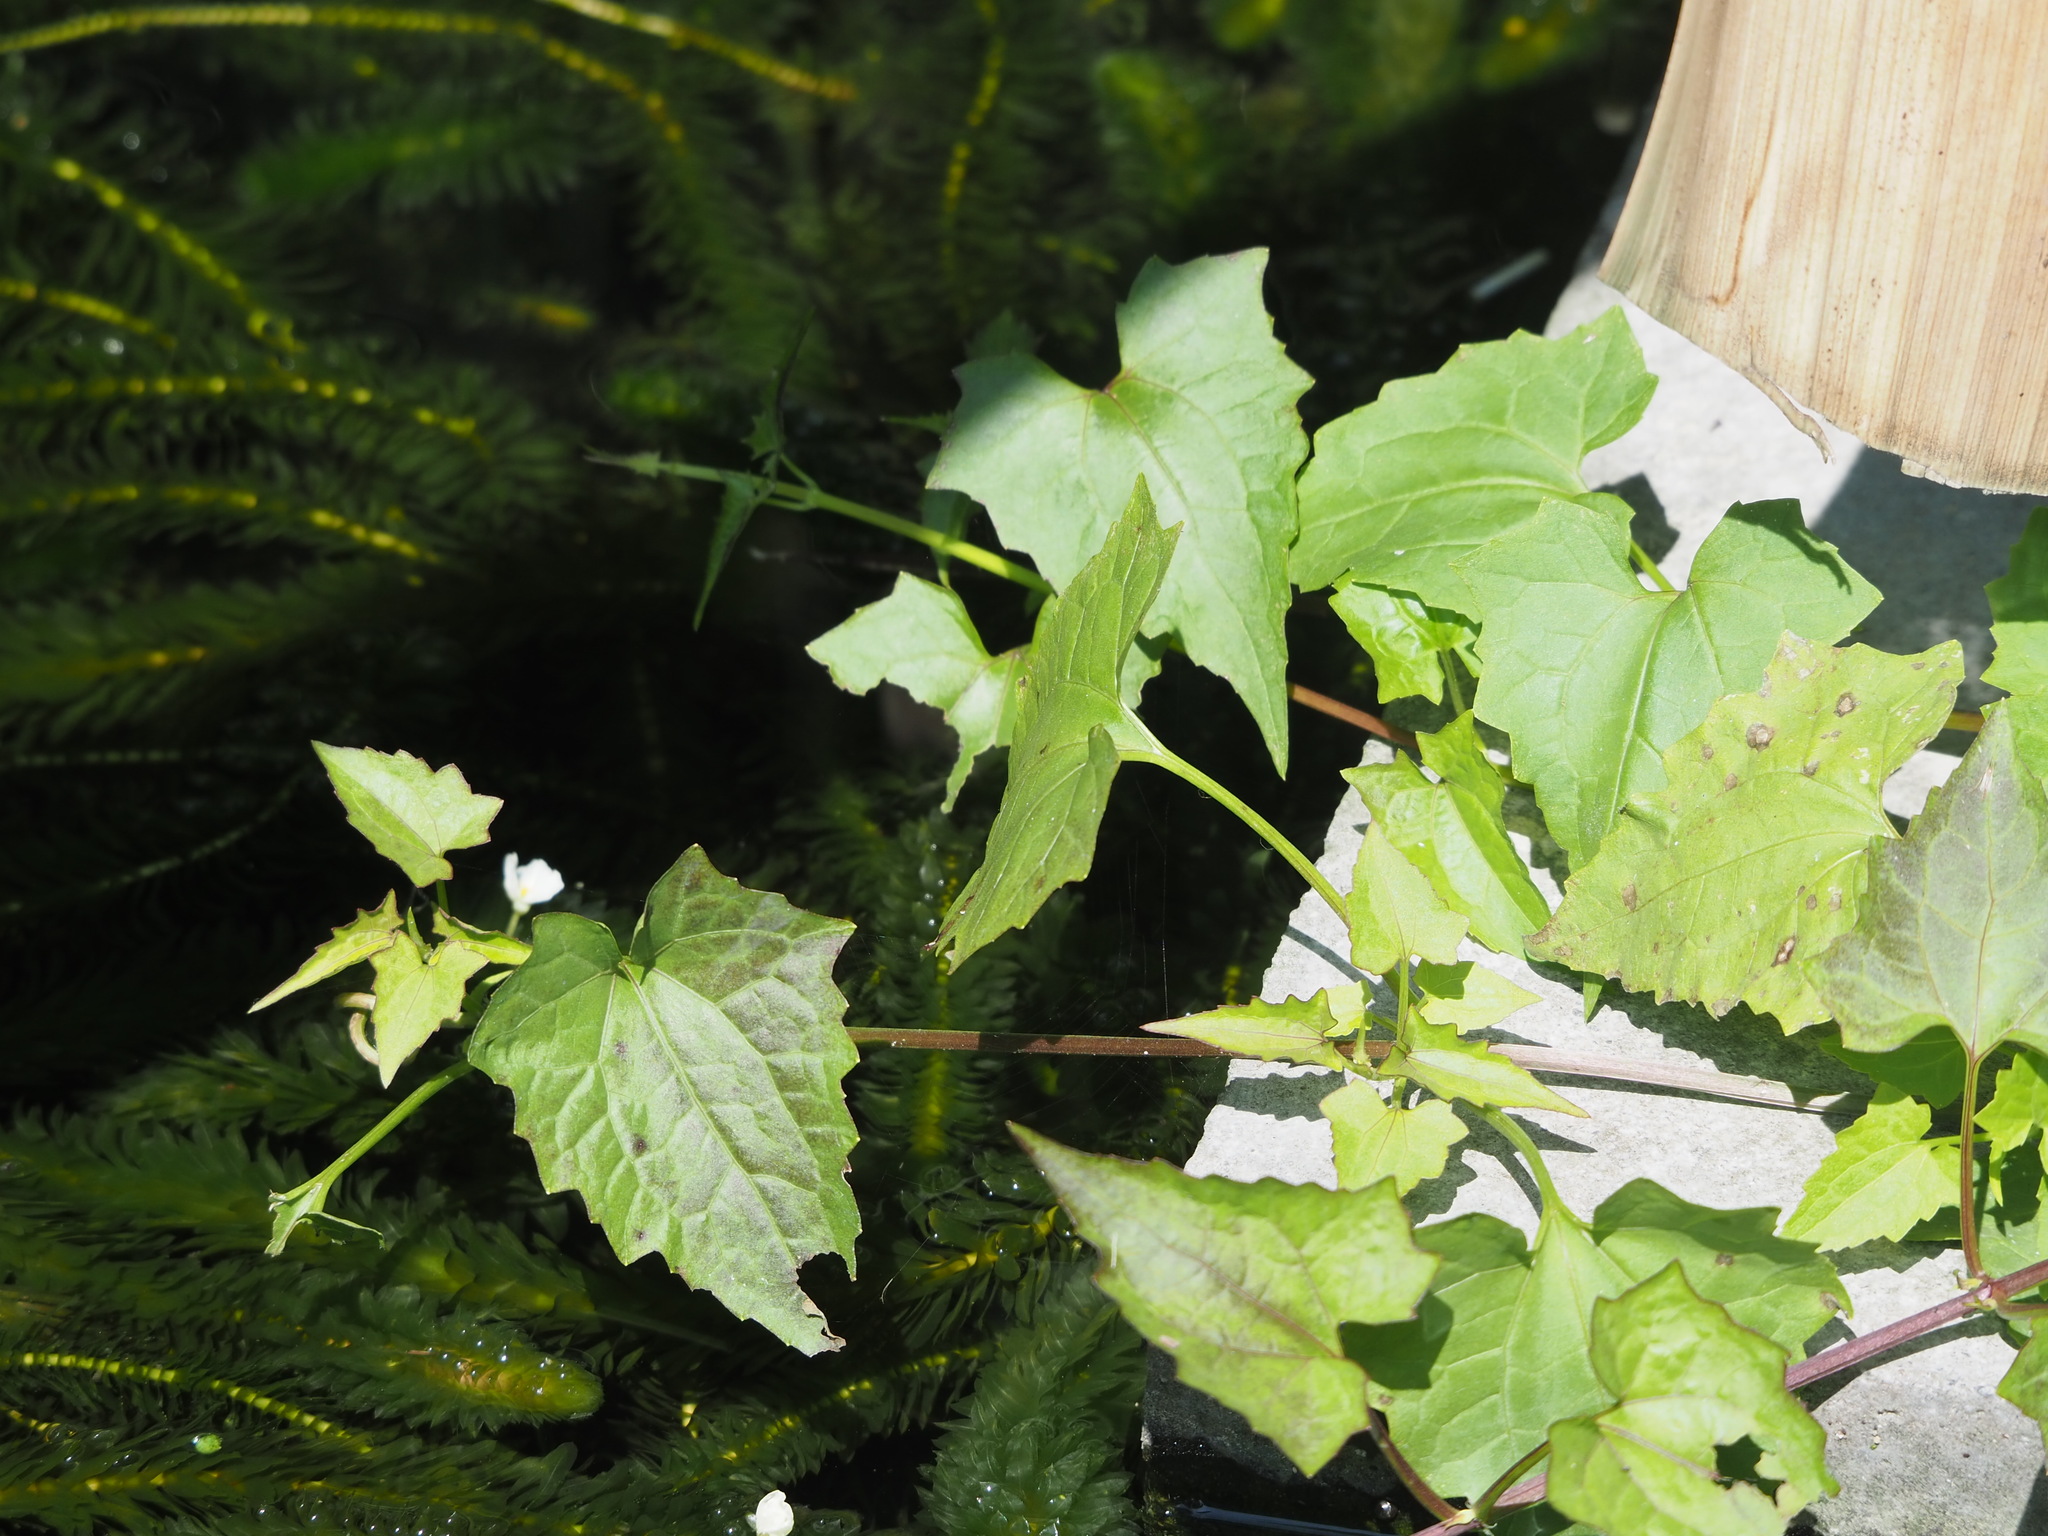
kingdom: Plantae
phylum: Tracheophyta
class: Magnoliopsida
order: Asterales
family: Asteraceae
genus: Mikania
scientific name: Mikania micrantha
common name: Mile-a-minute
